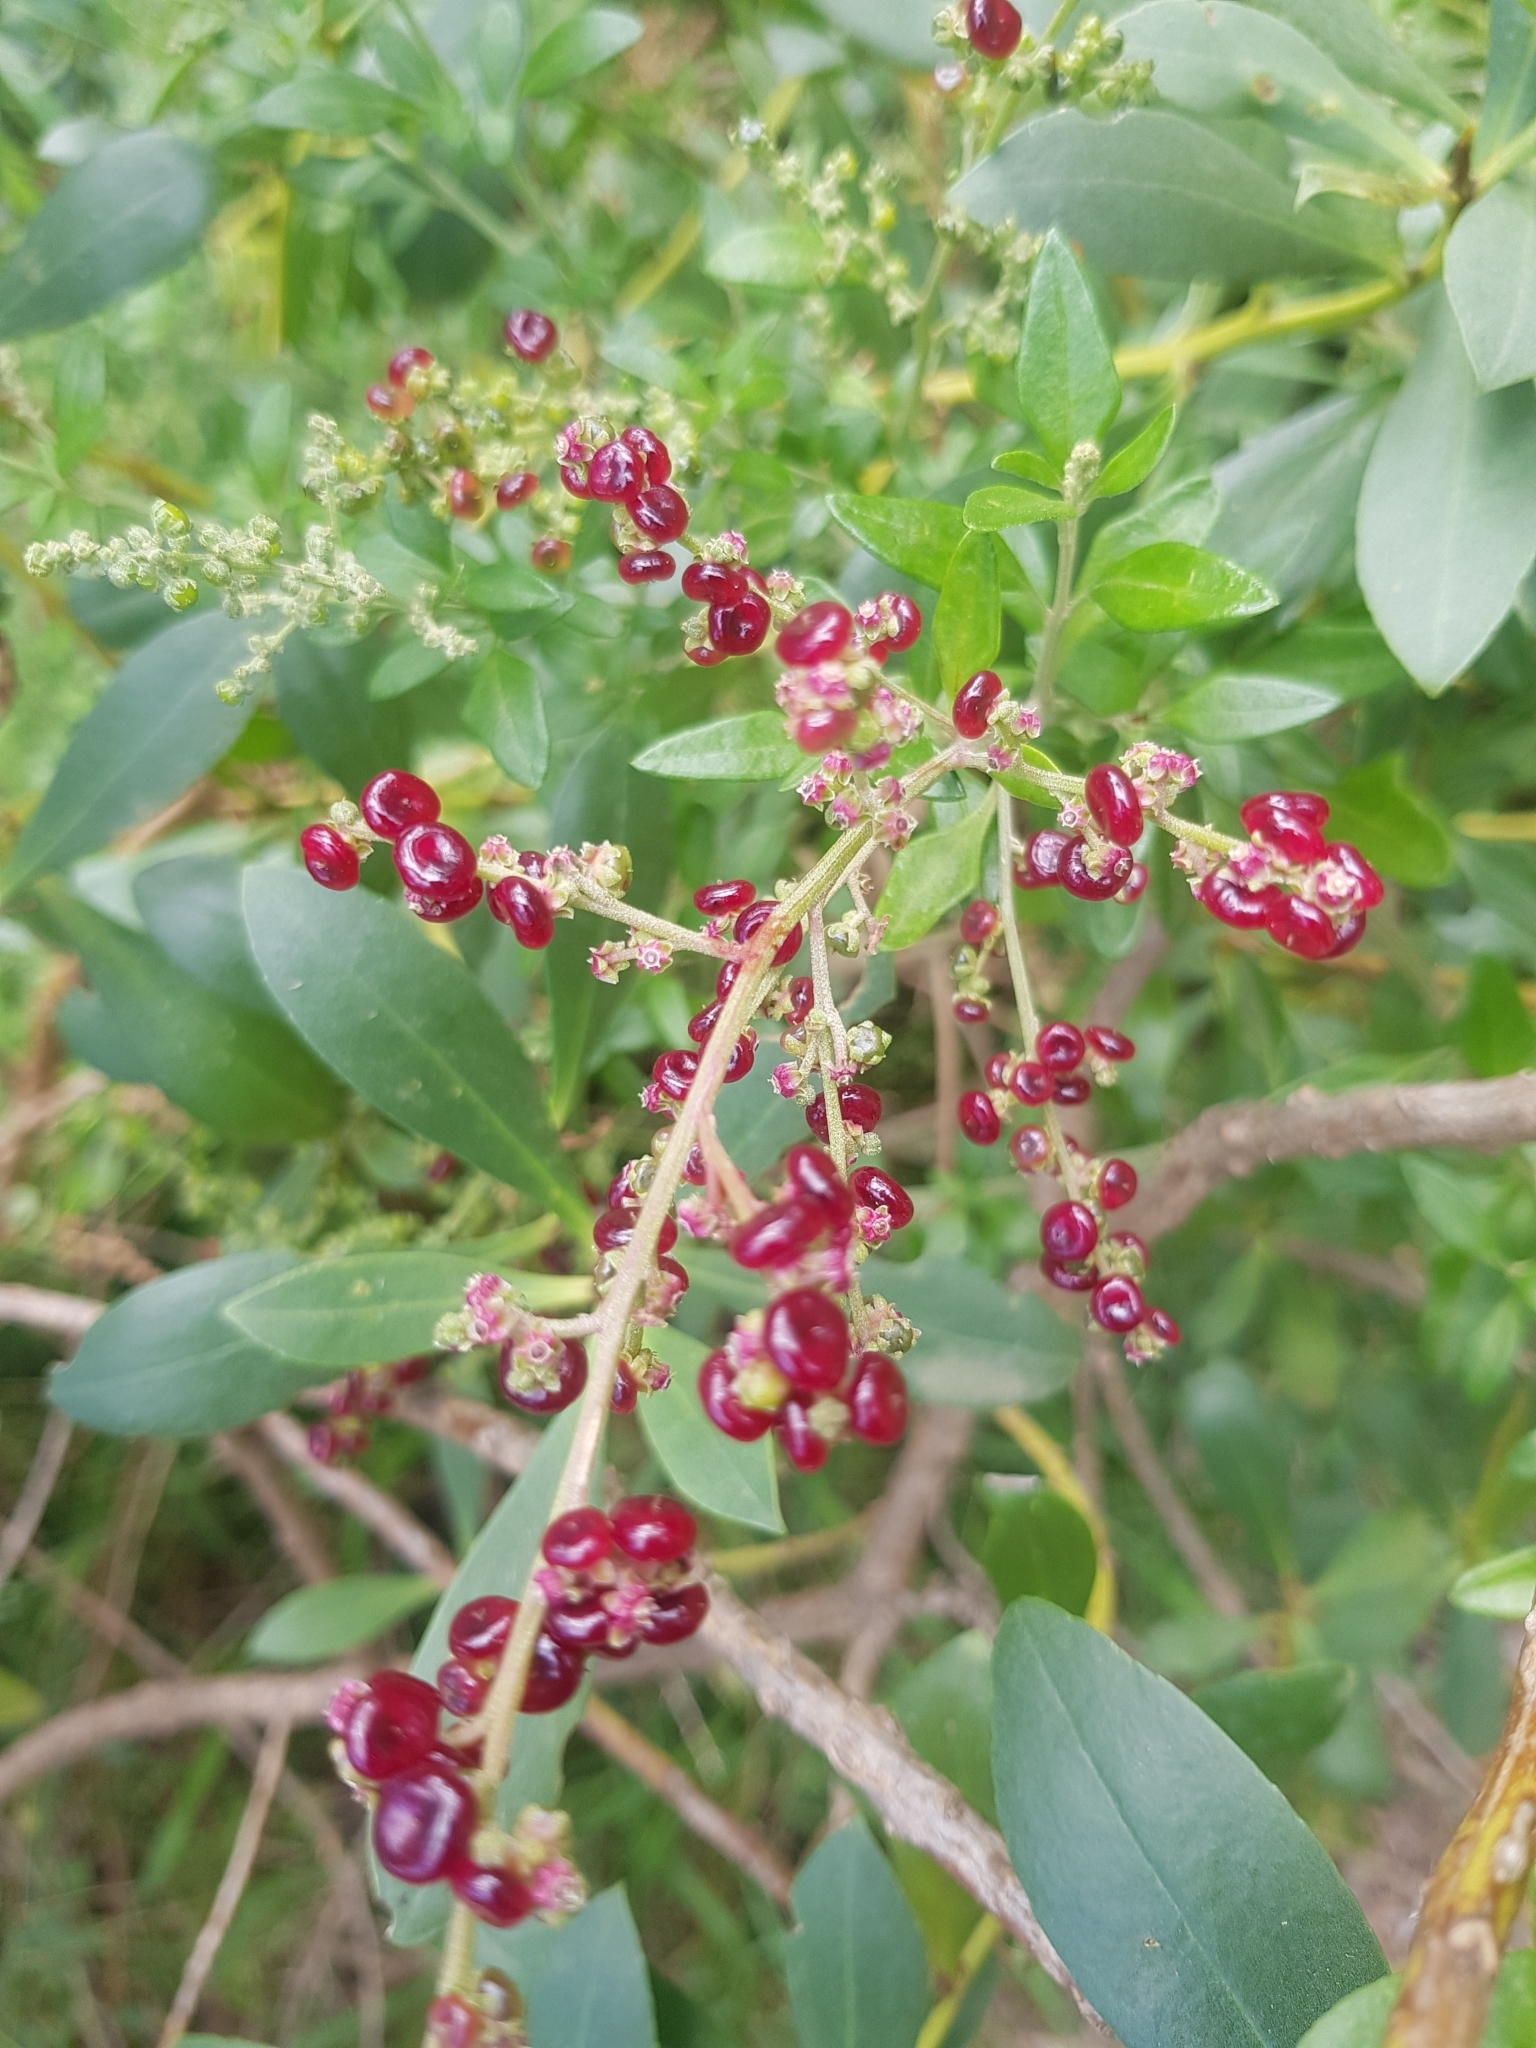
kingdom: Plantae
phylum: Tracheophyta
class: Magnoliopsida
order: Caryophyllales
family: Amaranthaceae
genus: Chenopodium
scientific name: Chenopodium candolleanum
